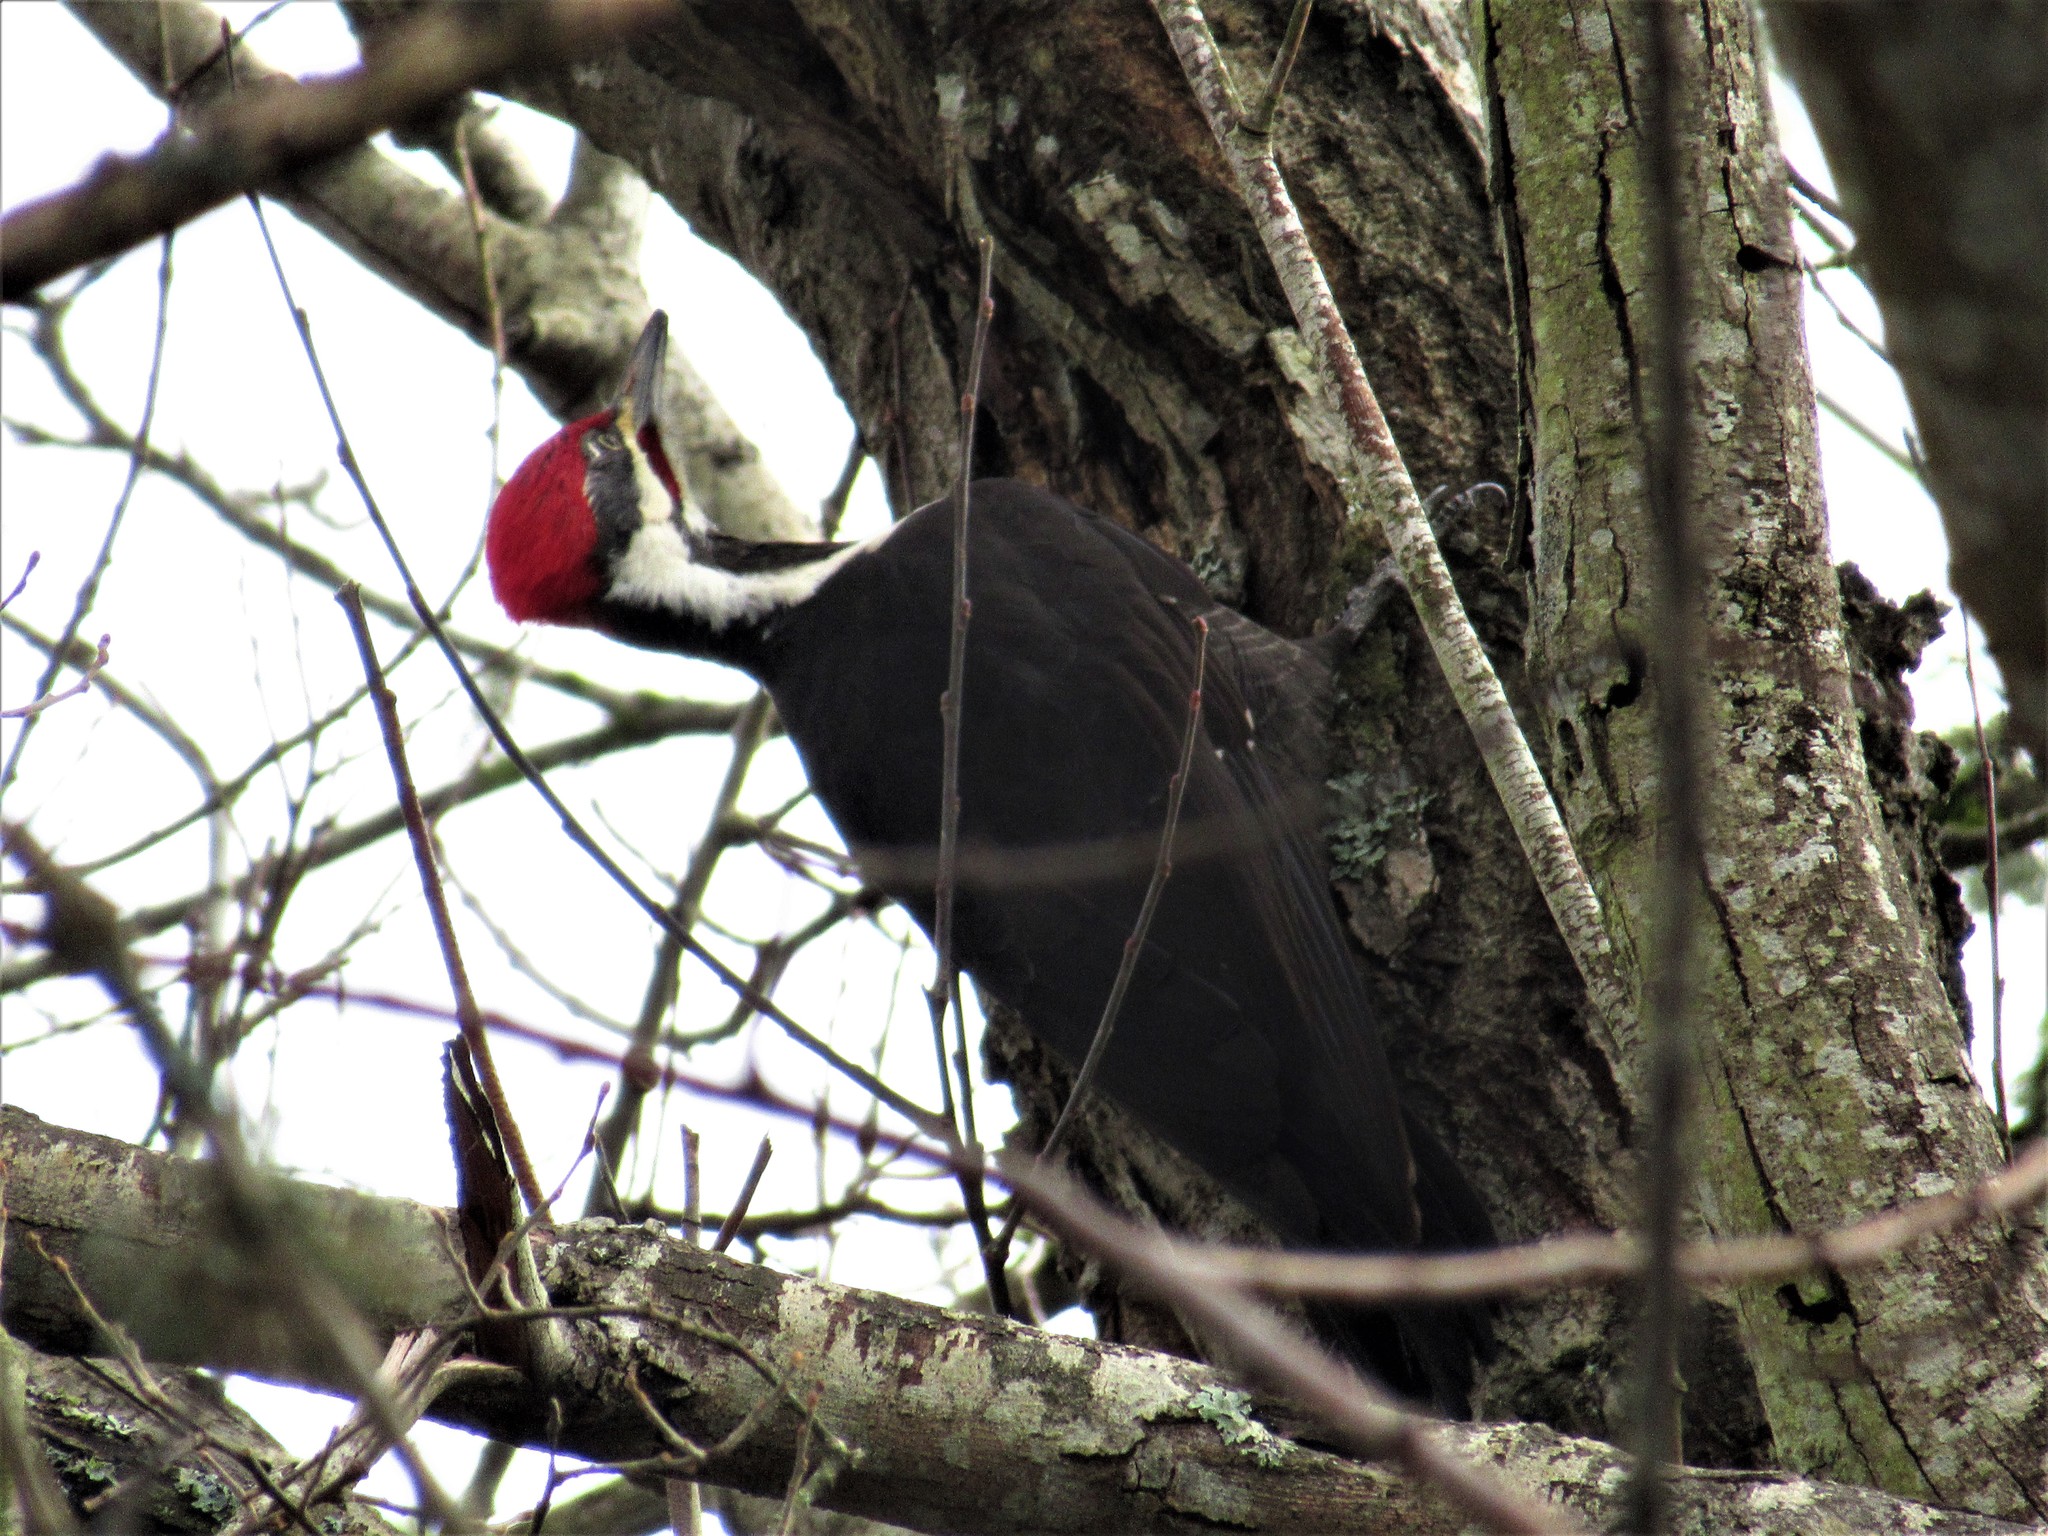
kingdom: Animalia
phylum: Chordata
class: Aves
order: Piciformes
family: Picidae
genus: Dryocopus
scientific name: Dryocopus pileatus
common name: Pileated woodpecker
